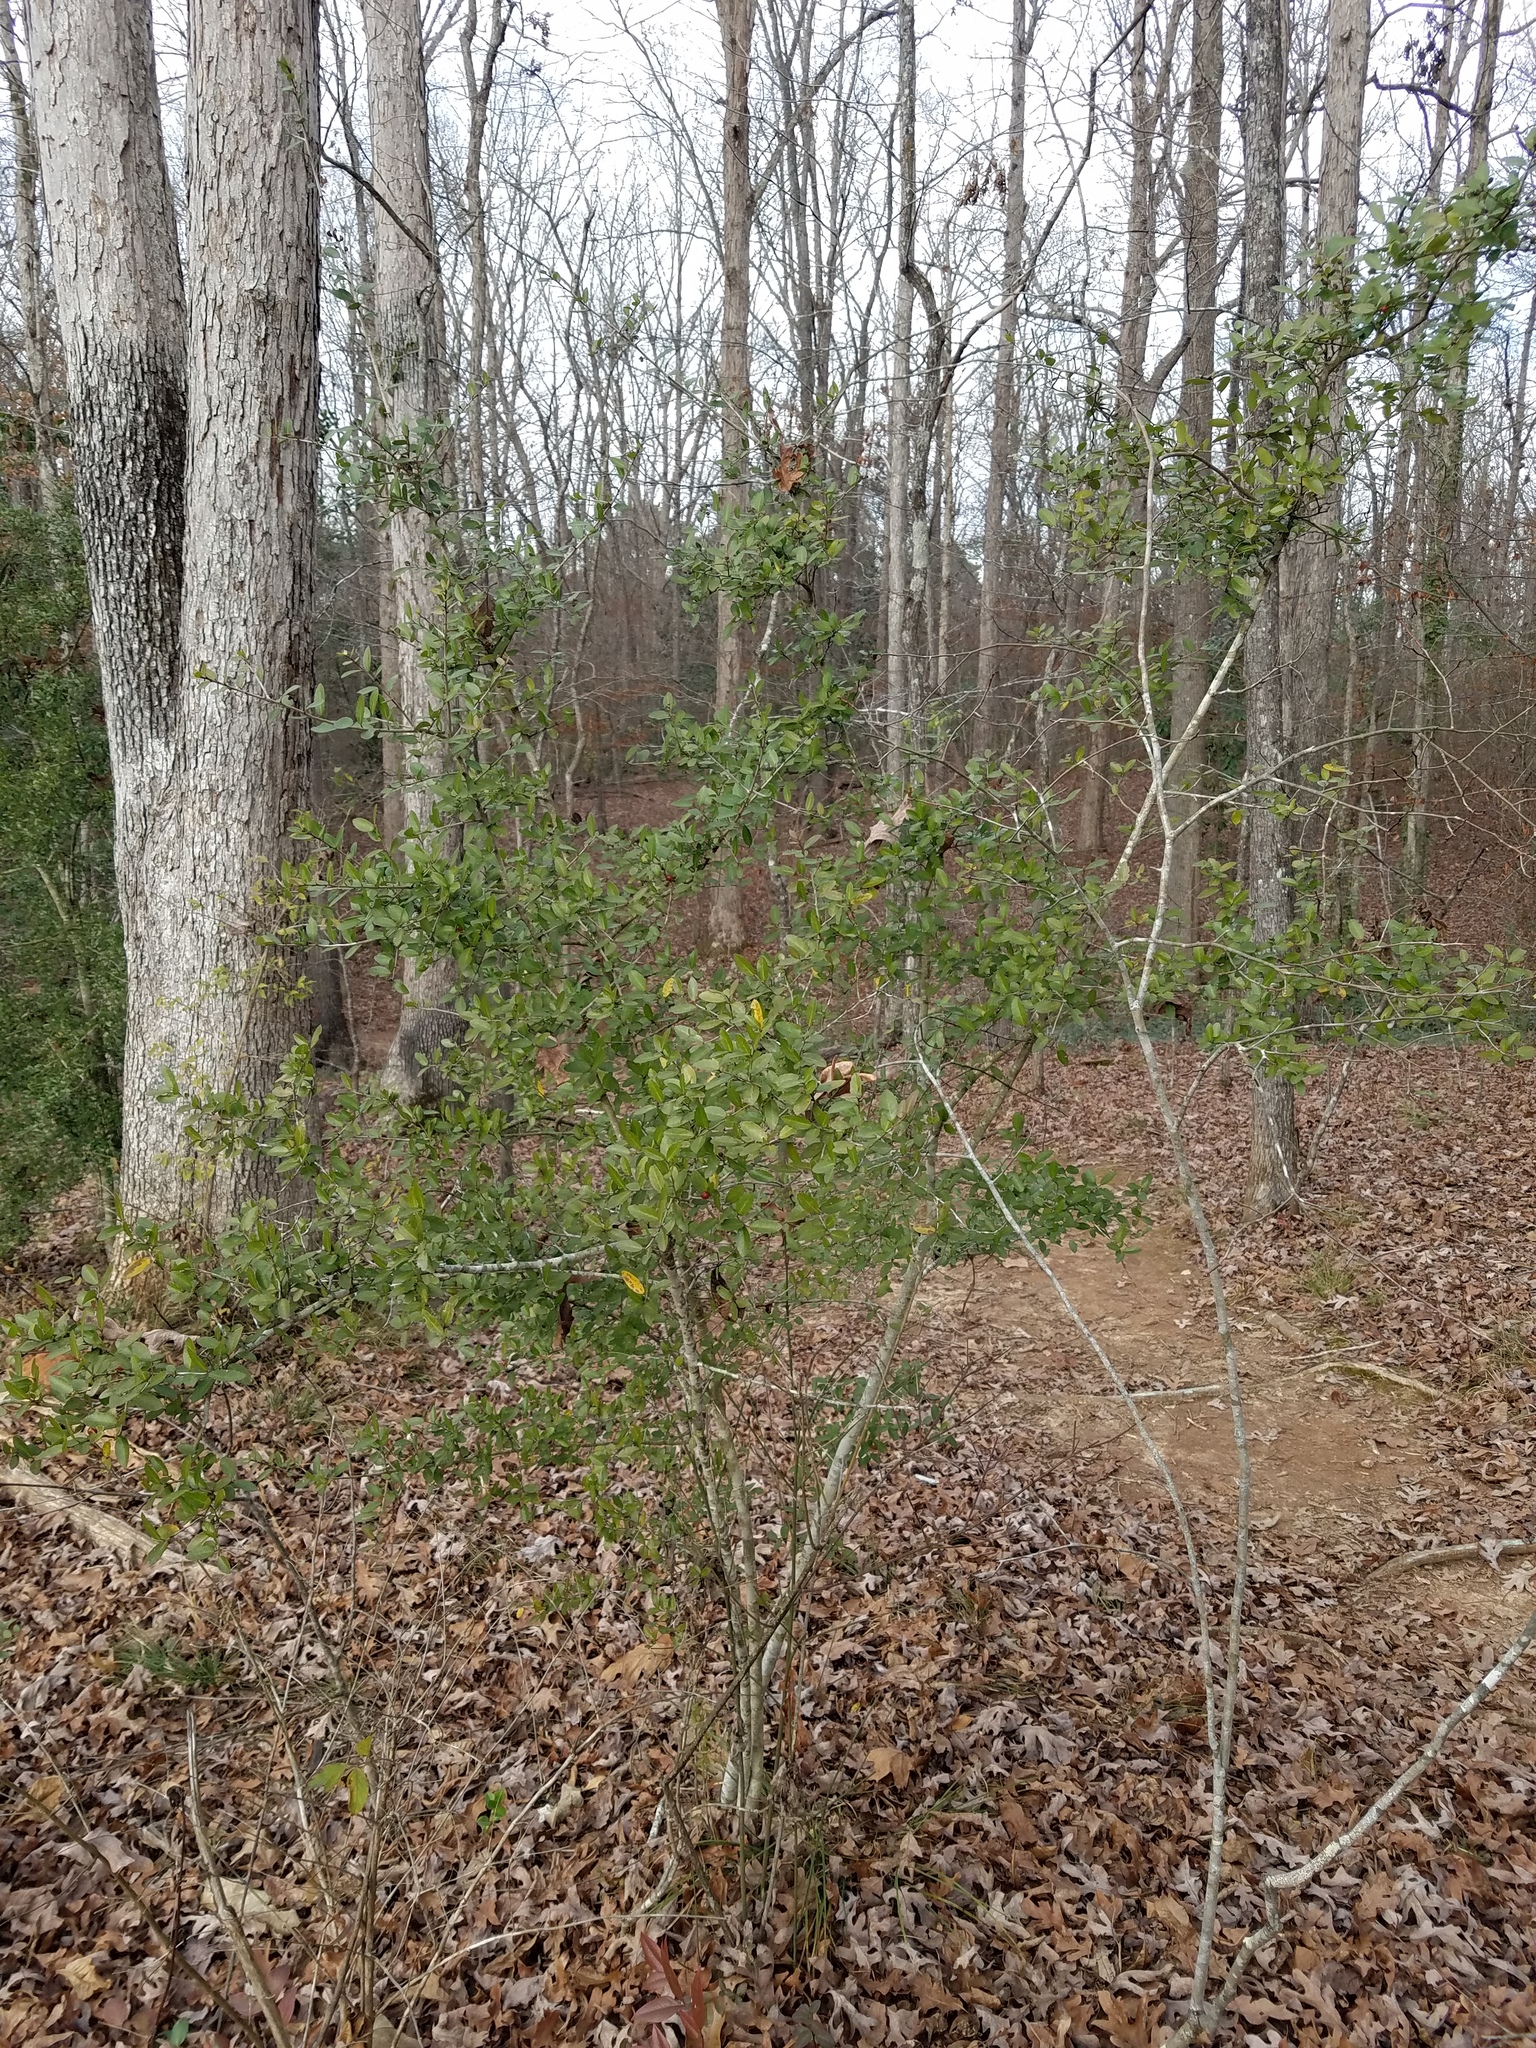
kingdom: Plantae
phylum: Tracheophyta
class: Magnoliopsida
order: Aquifoliales
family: Aquifoliaceae
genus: Ilex
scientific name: Ilex vomitoria
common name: Yaupon holly
